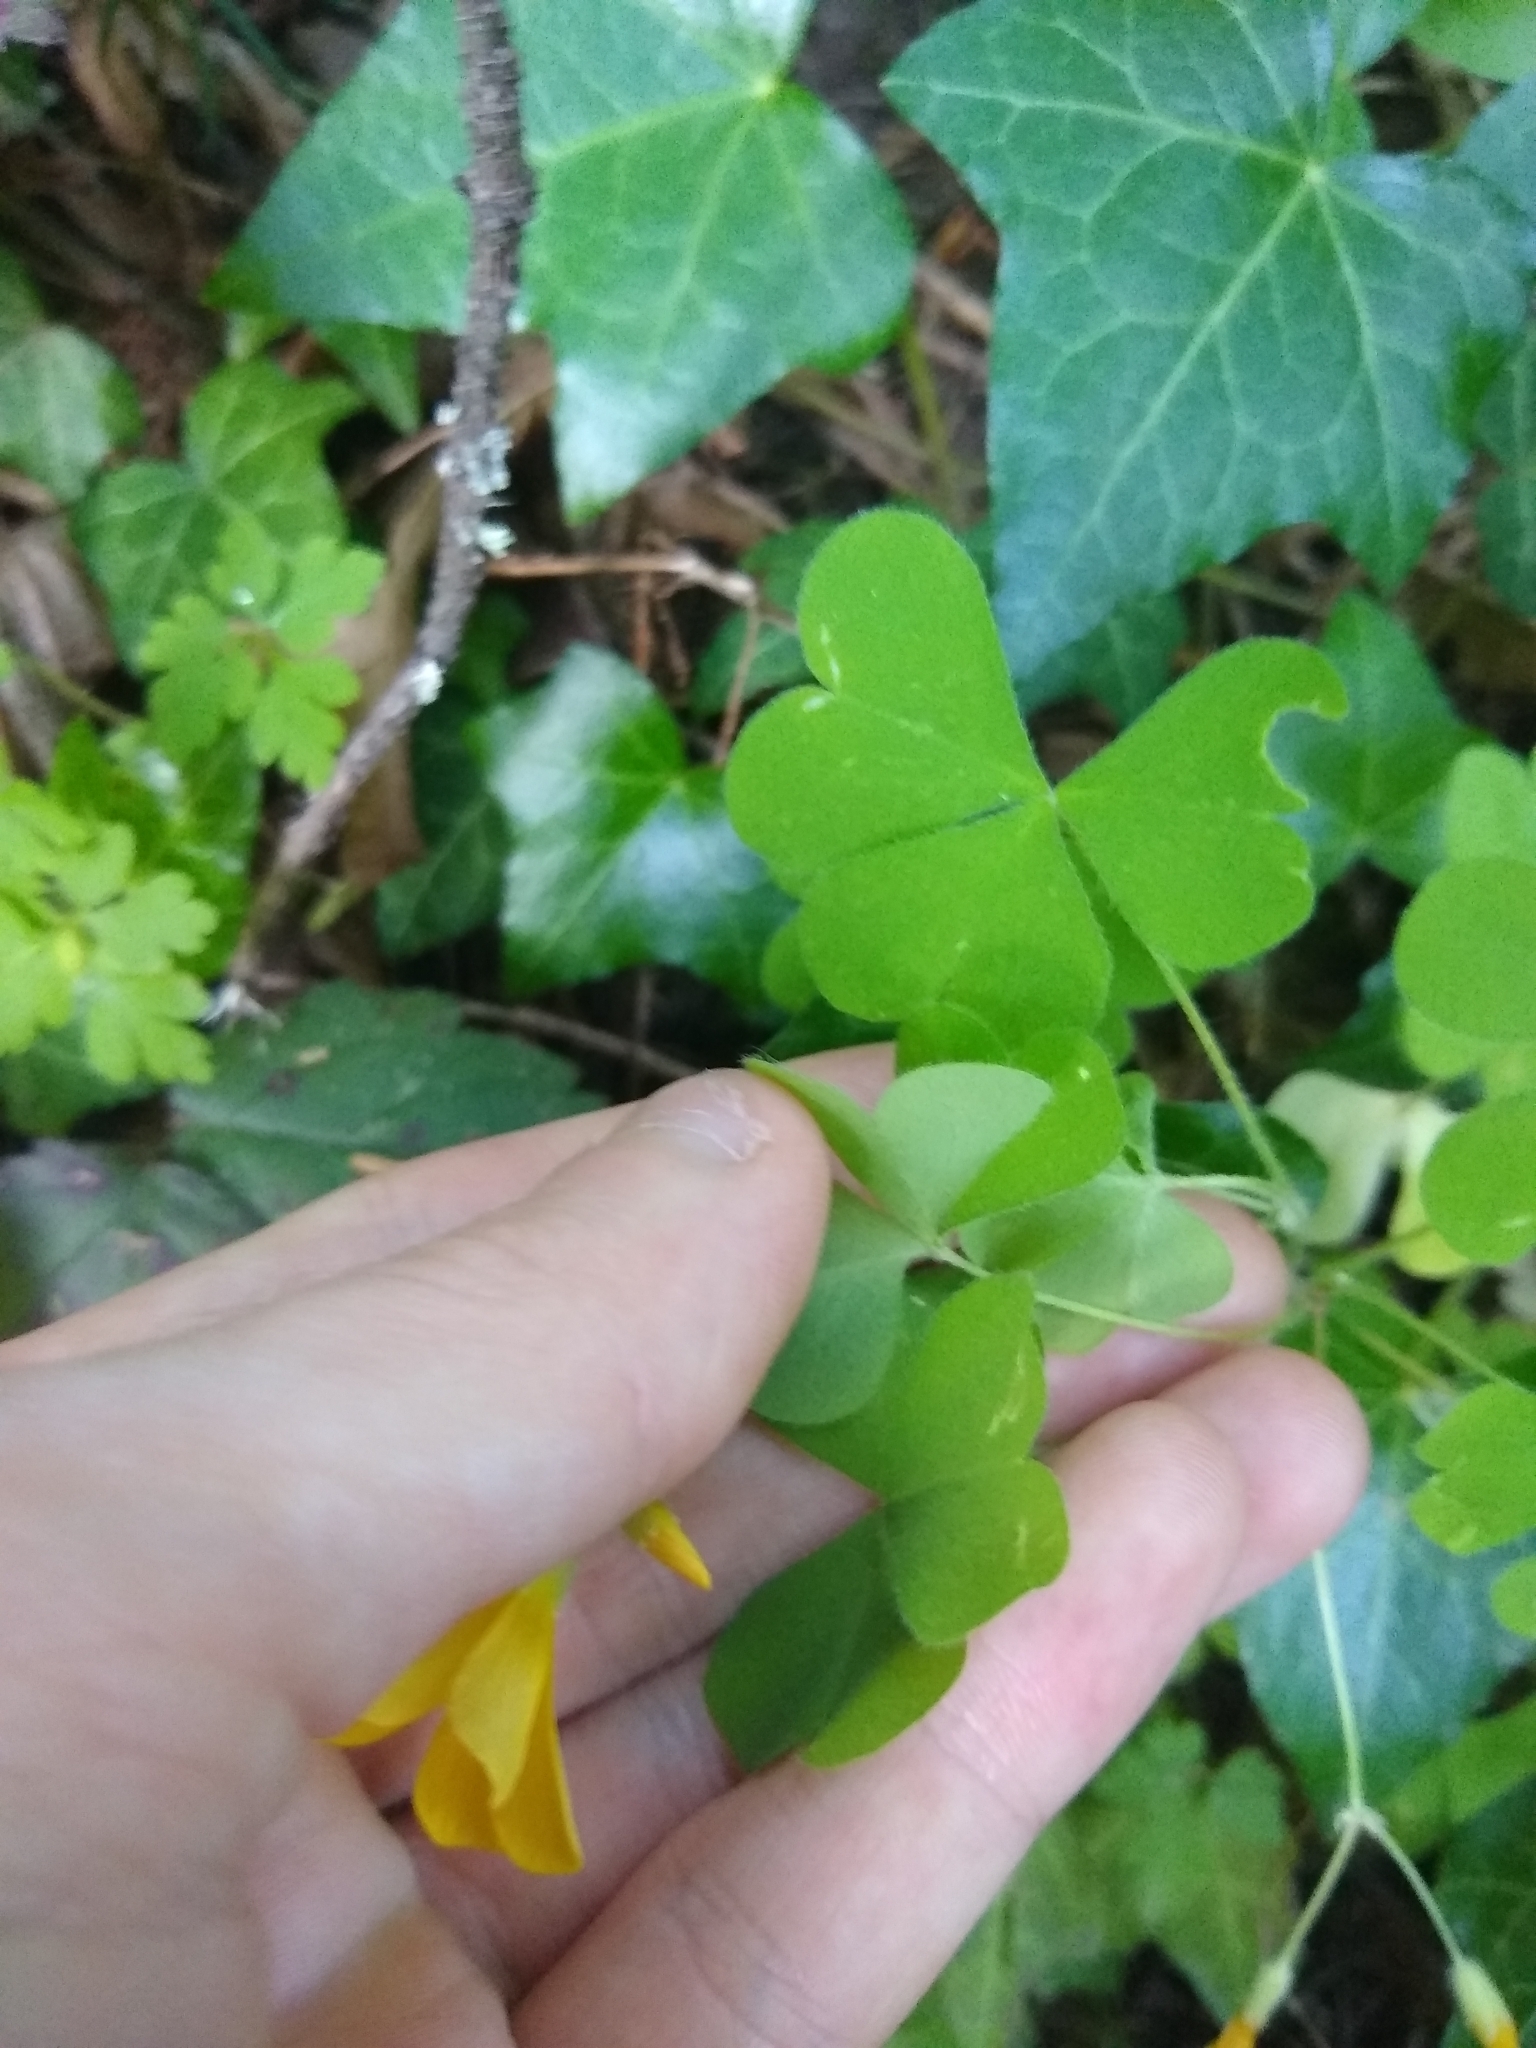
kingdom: Plantae
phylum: Tracheophyta
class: Magnoliopsida
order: Oxalidales
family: Oxalidaceae
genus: Oxalis
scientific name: Oxalis suksdorfii
